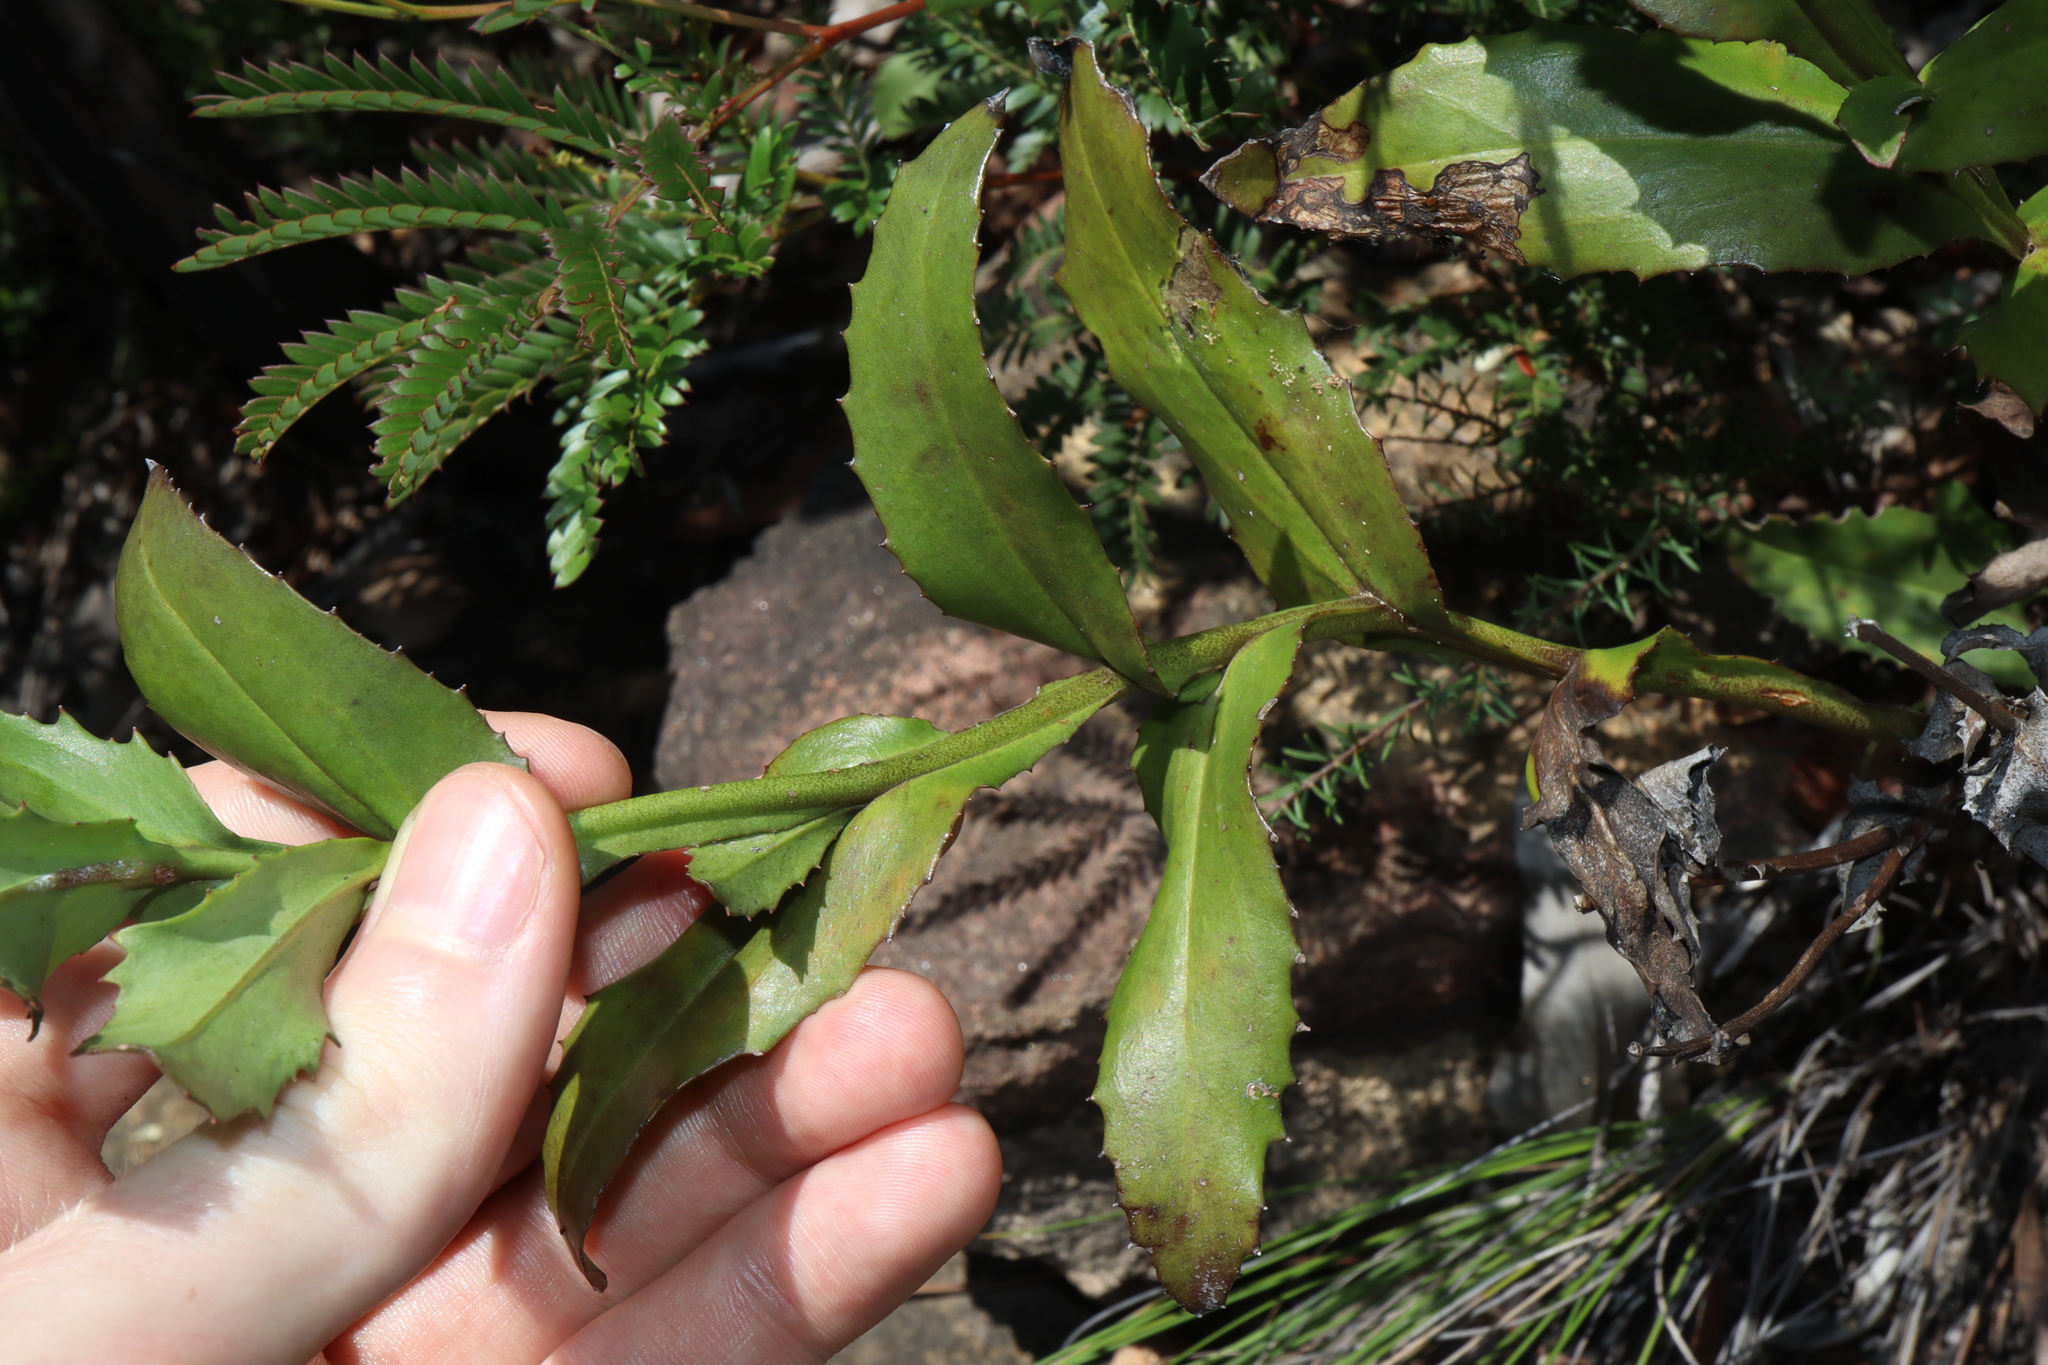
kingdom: Plantae
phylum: Tracheophyta
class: Magnoliopsida
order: Asterales
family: Goodeniaceae
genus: Goodenia
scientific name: Goodenia decurrens
